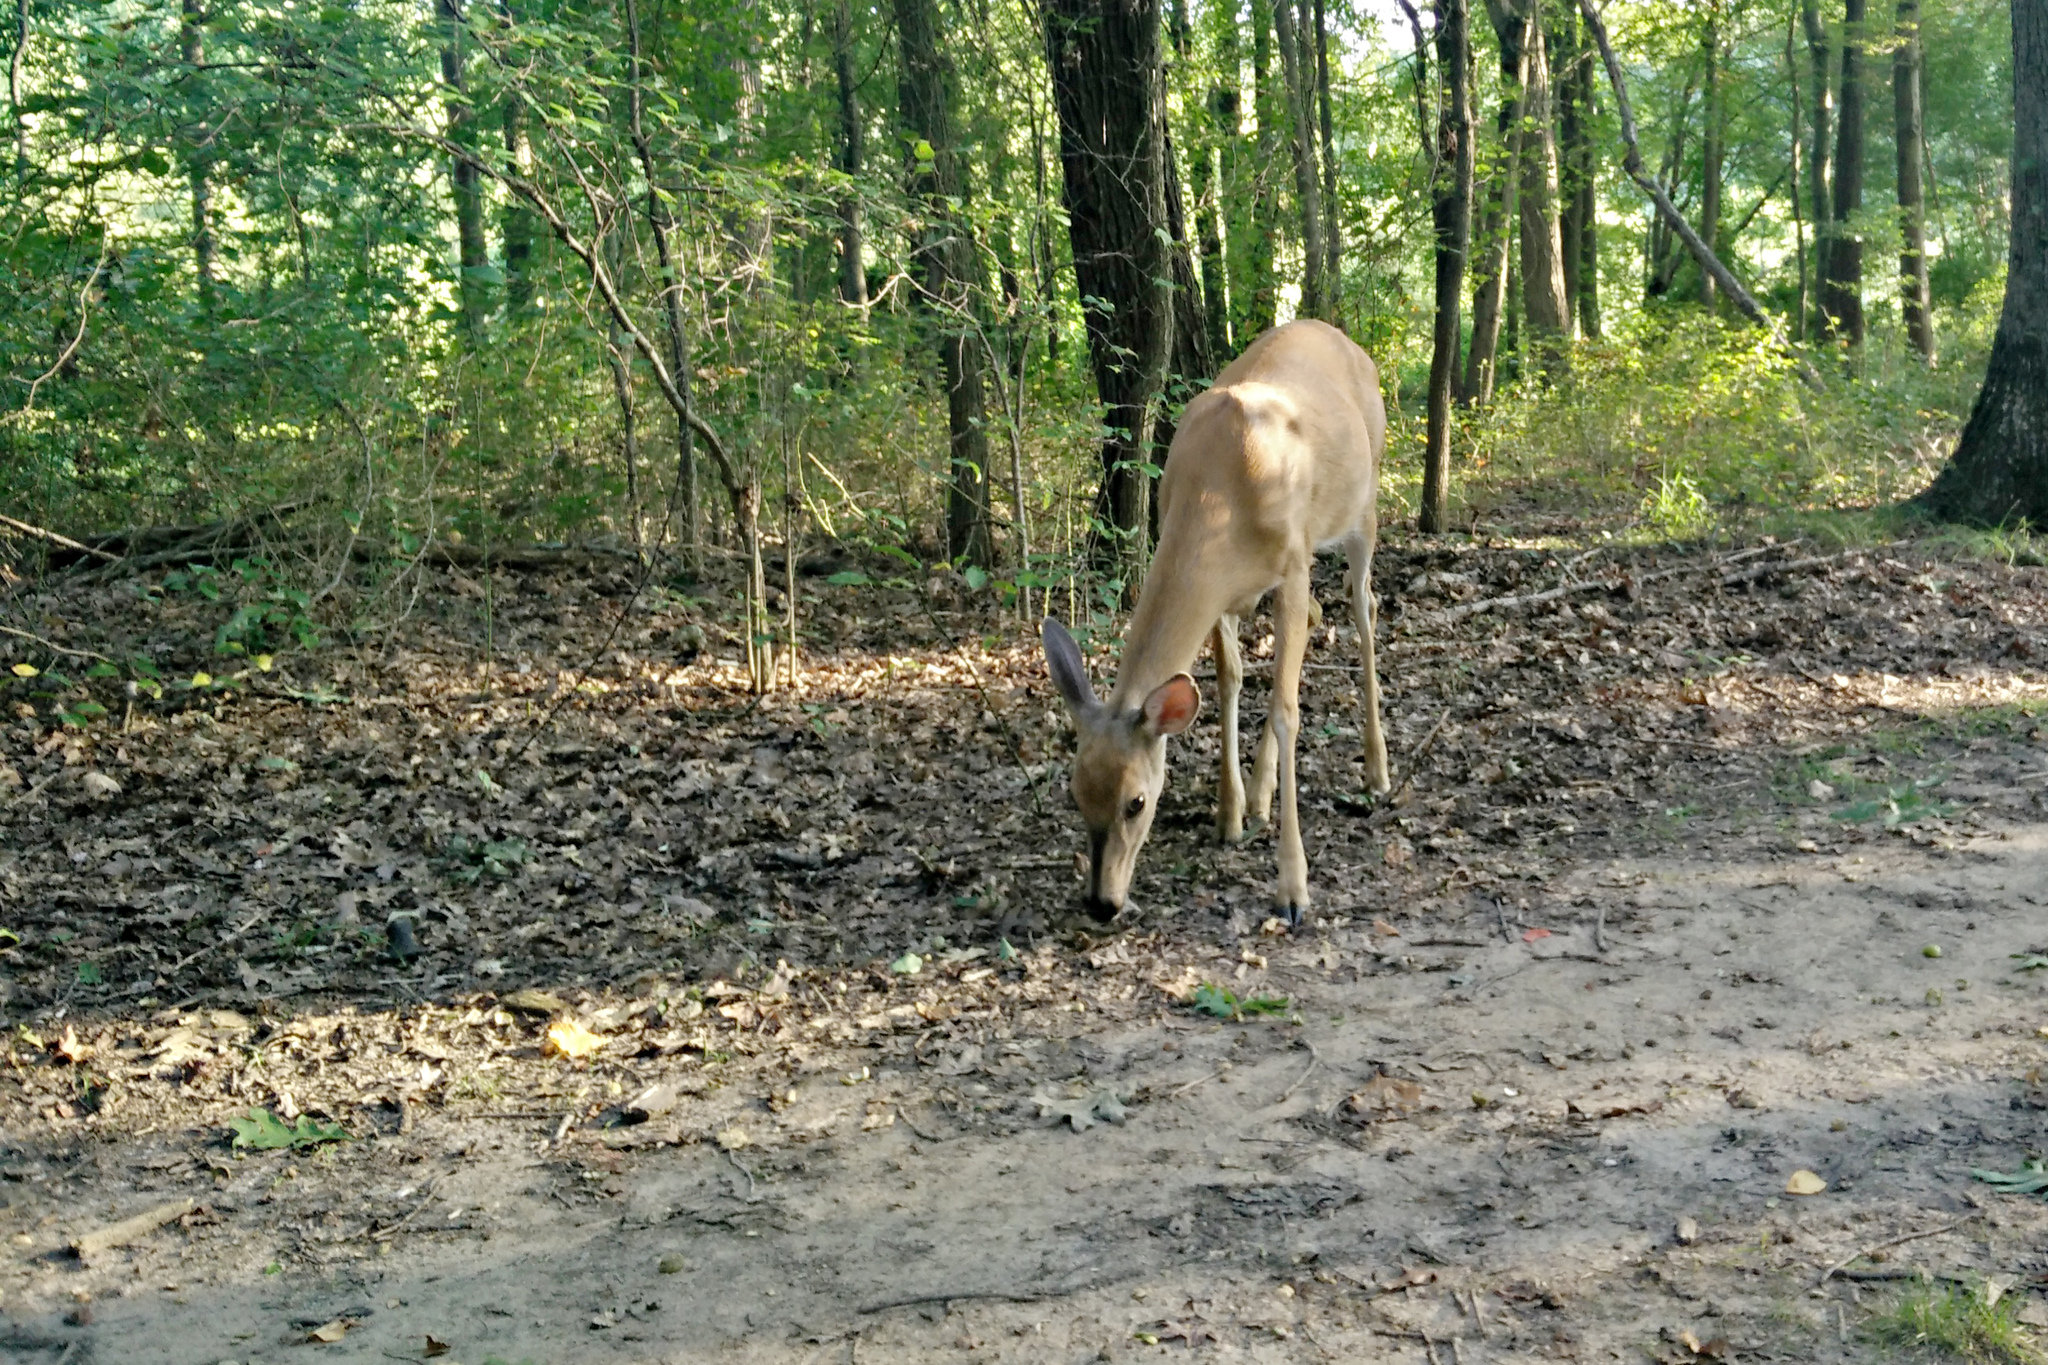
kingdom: Animalia
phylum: Chordata
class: Mammalia
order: Artiodactyla
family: Cervidae
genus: Odocoileus
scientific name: Odocoileus virginianus
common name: White-tailed deer
